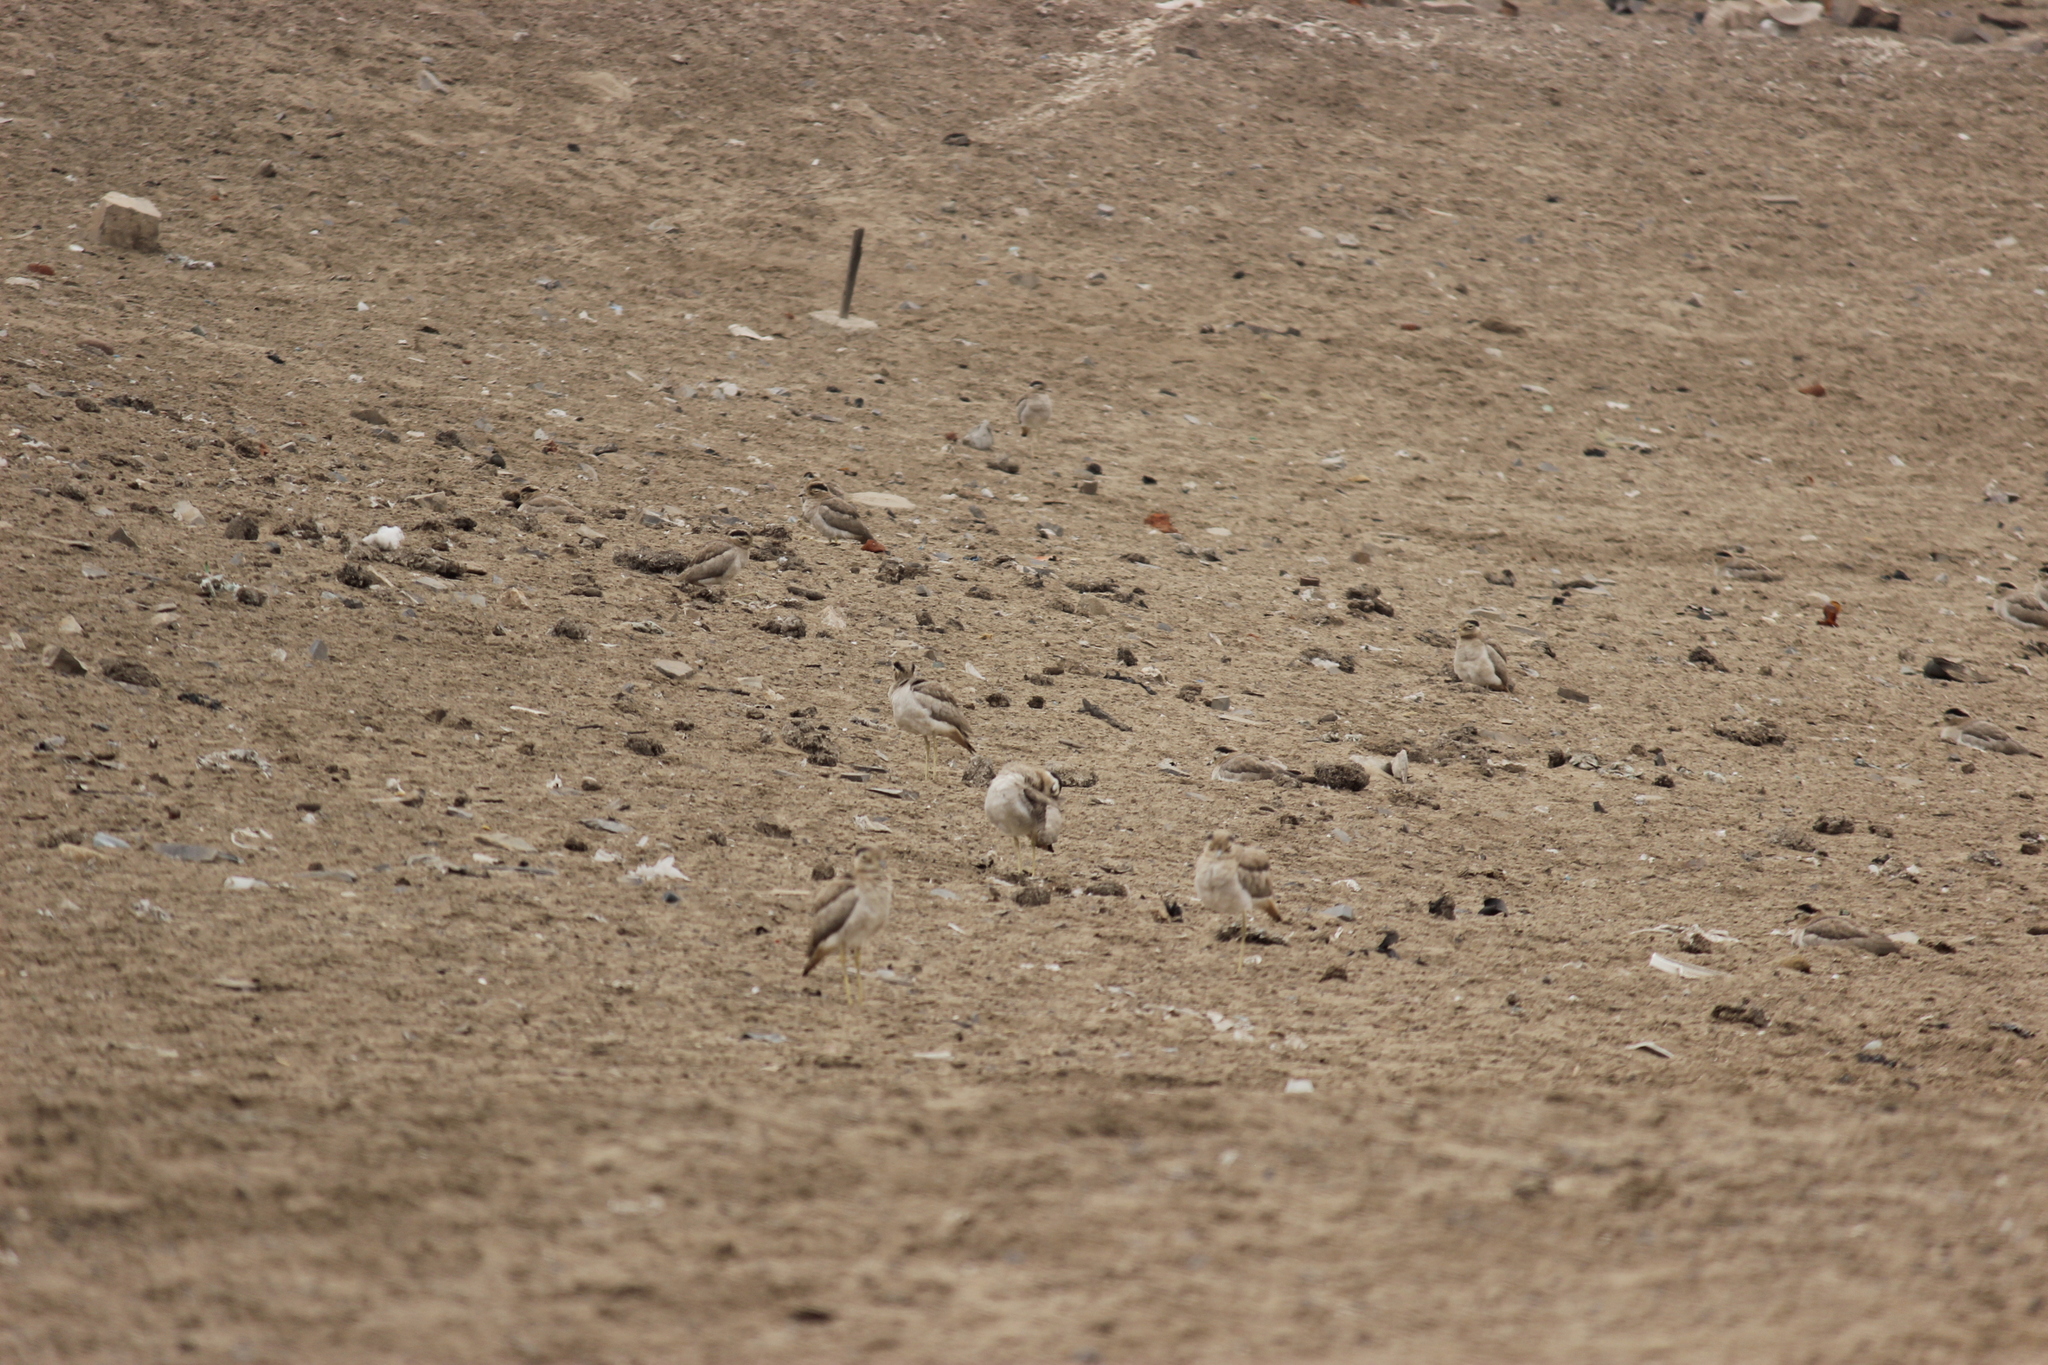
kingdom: Animalia
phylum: Chordata
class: Aves
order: Charadriiformes
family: Burhinidae
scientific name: Burhinidae
